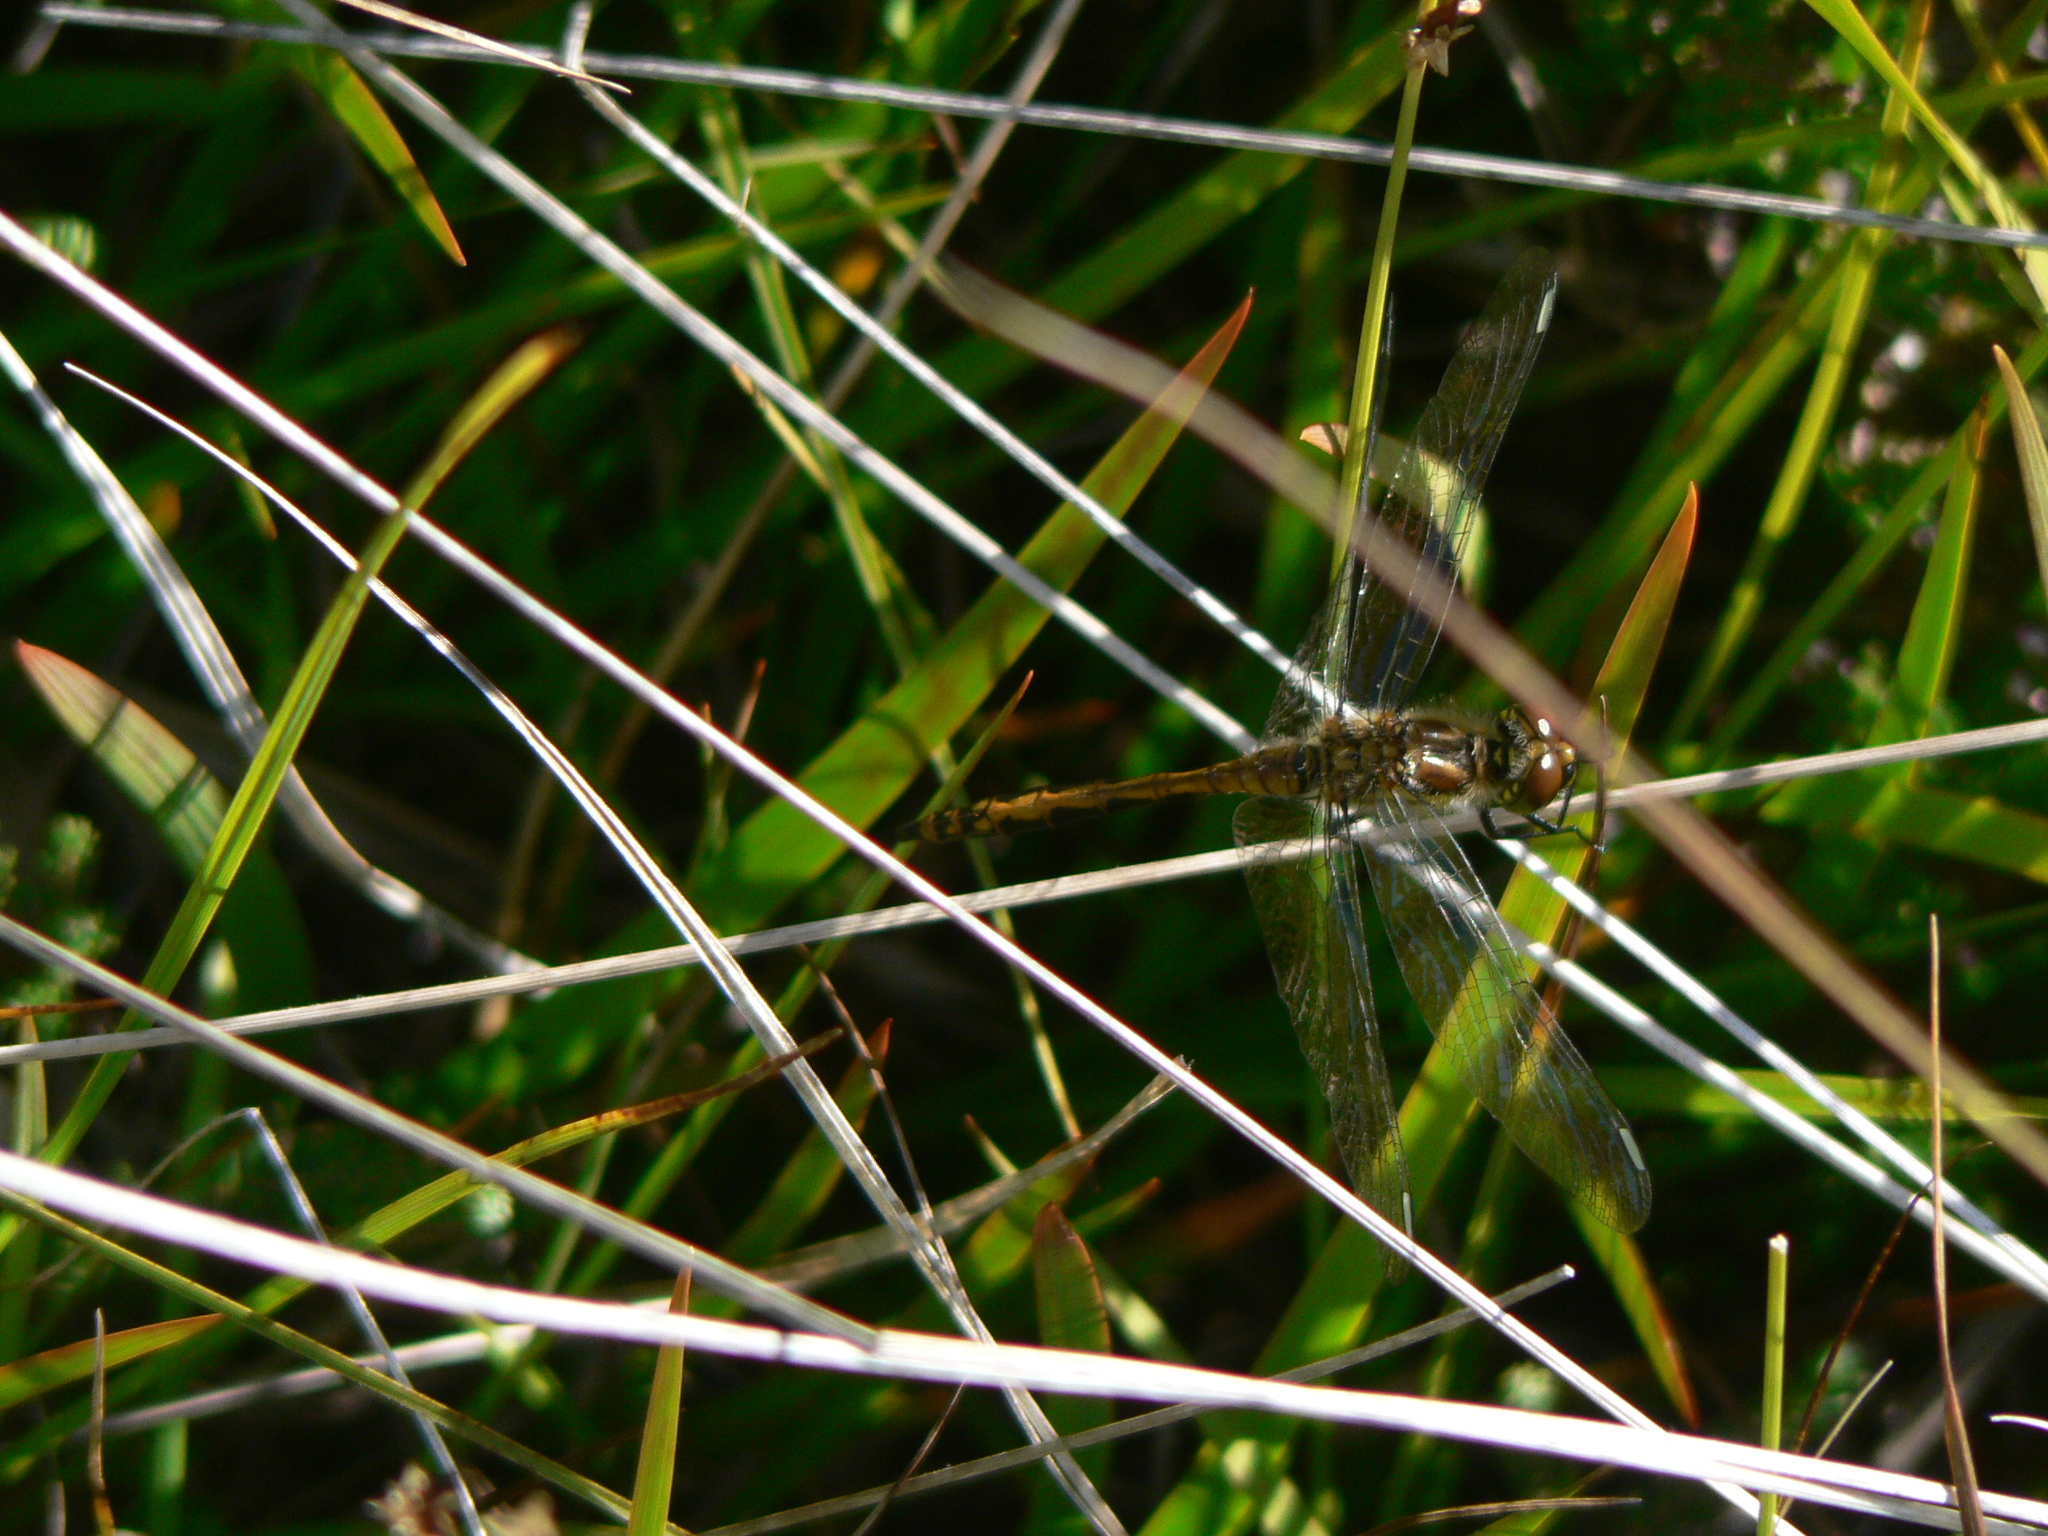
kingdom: Animalia
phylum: Arthropoda
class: Insecta
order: Odonata
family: Libellulidae
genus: Sympetrum
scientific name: Sympetrum danae
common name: Black darter
